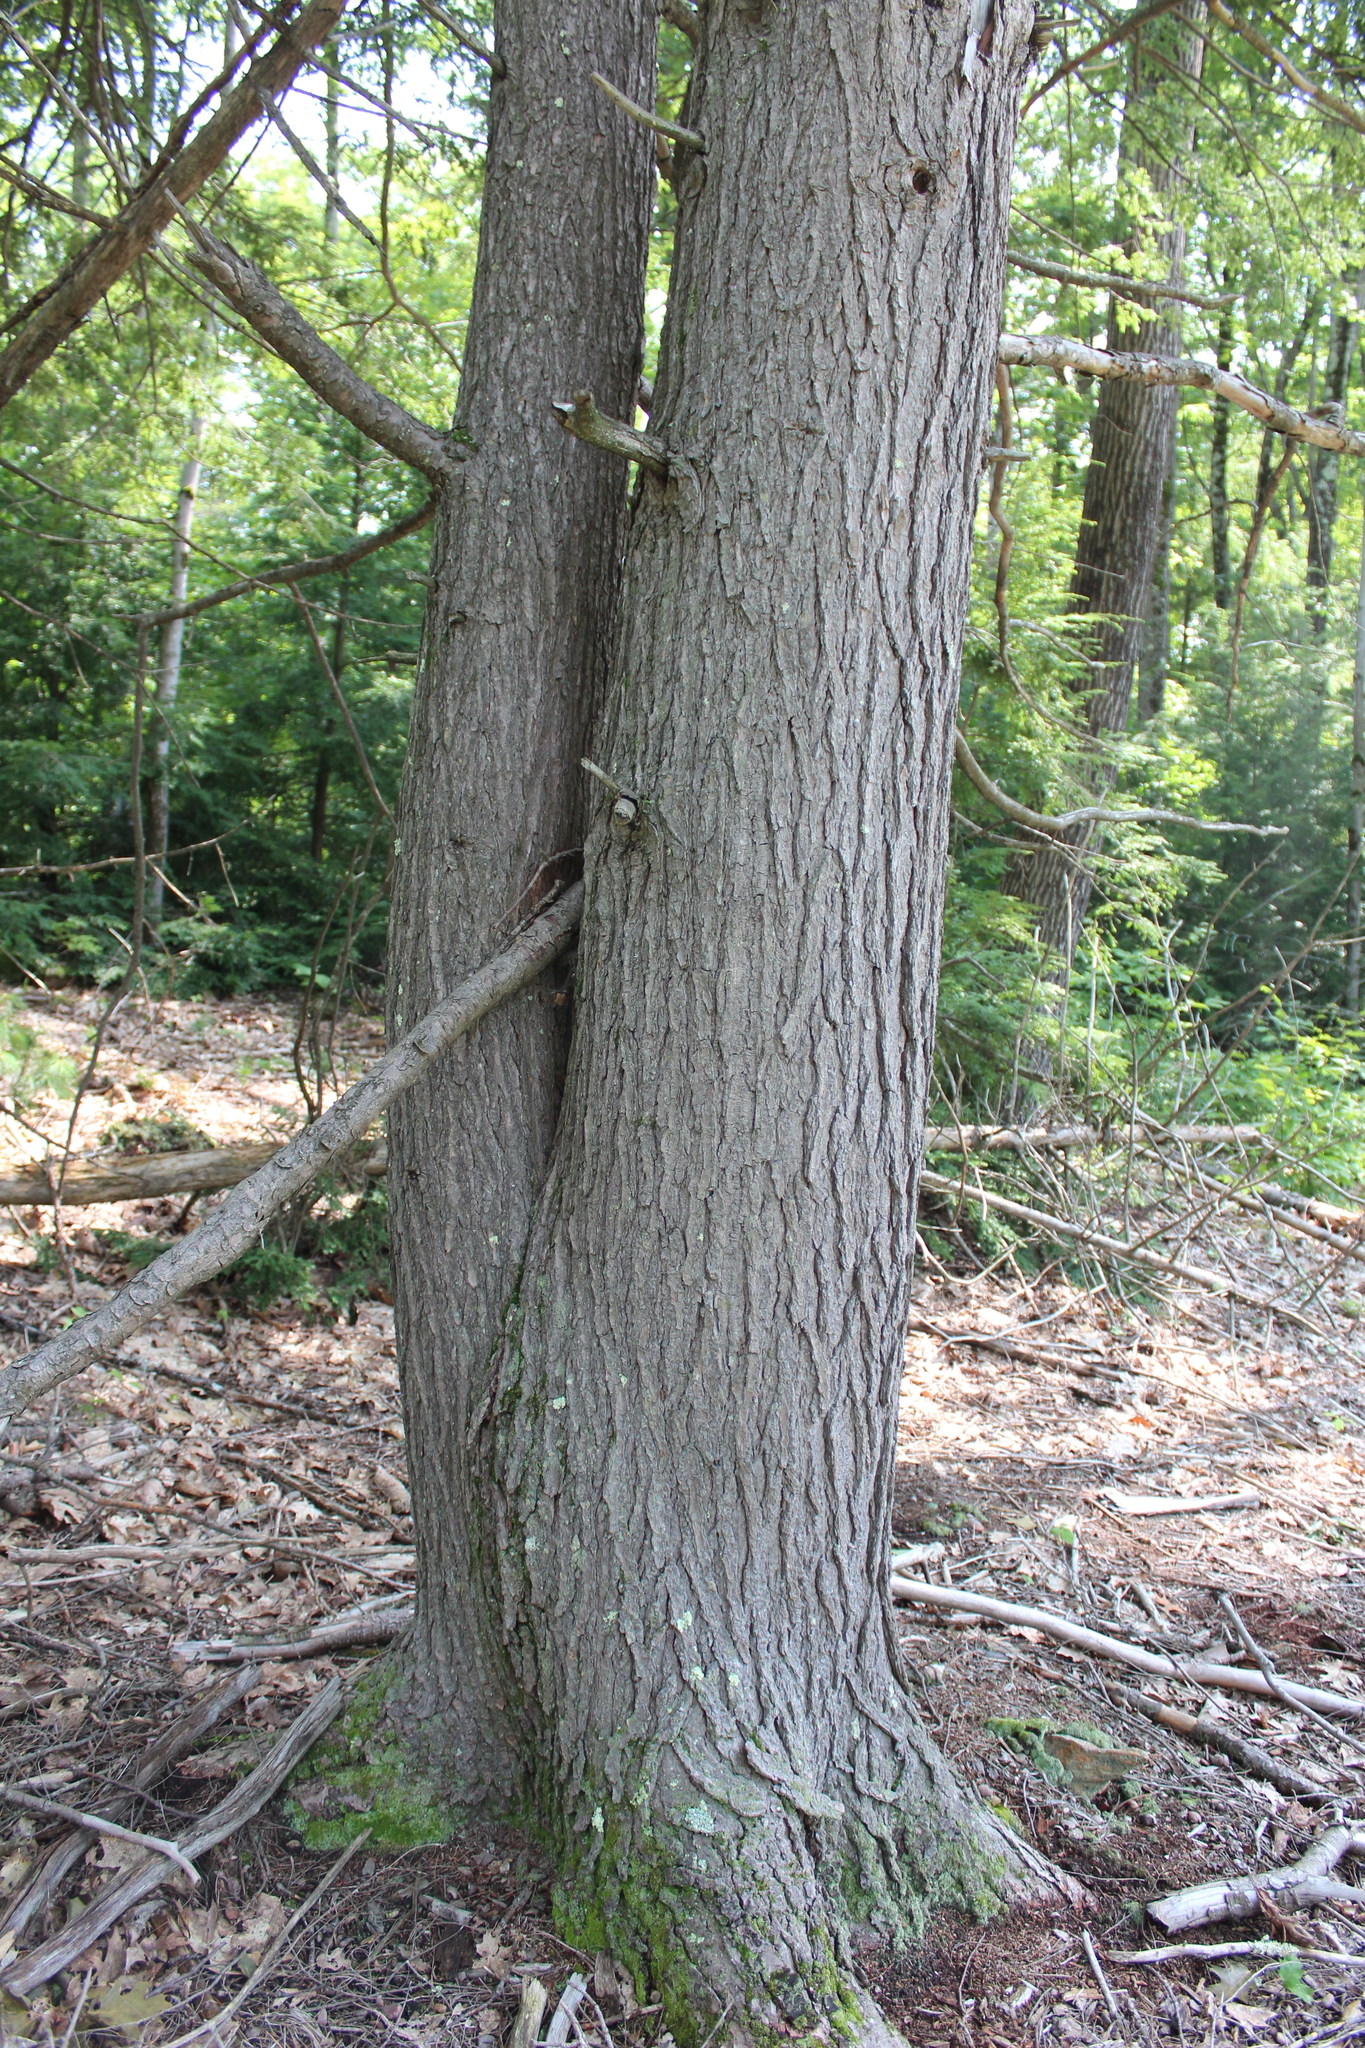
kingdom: Plantae
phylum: Tracheophyta
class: Pinopsida
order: Pinales
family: Pinaceae
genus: Tsuga
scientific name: Tsuga canadensis
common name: Eastern hemlock
